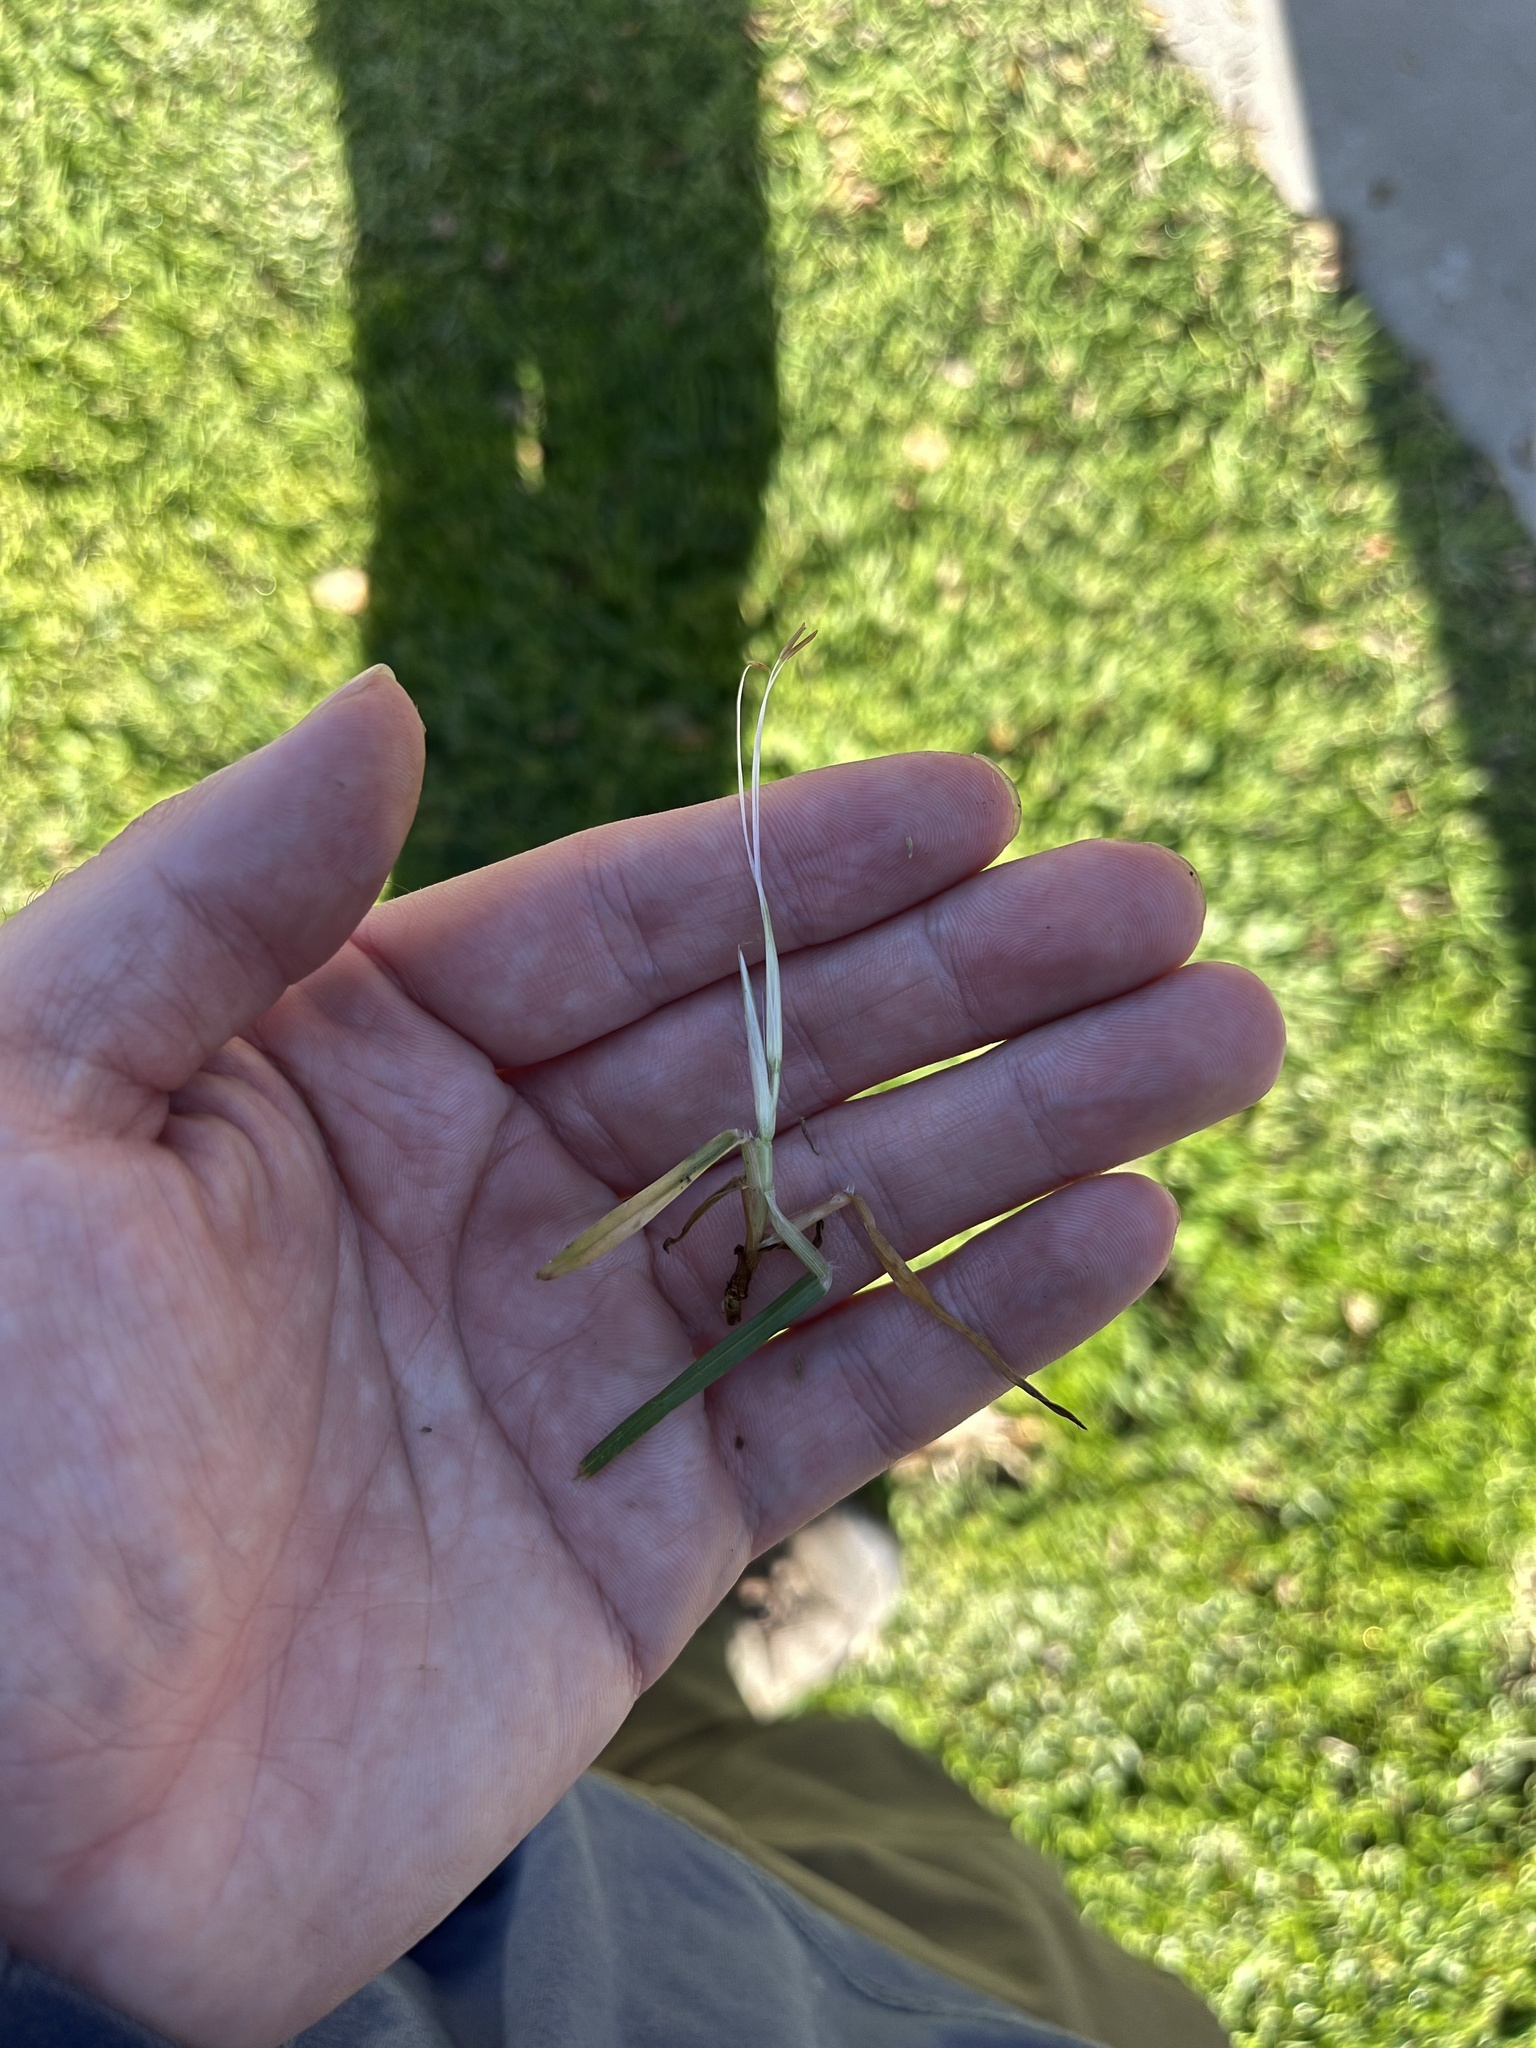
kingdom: Plantae
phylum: Tracheophyta
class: Liliopsida
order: Poales
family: Poaceae
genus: Cenchrus
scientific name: Cenchrus clandestinus
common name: Kikuyugrass
